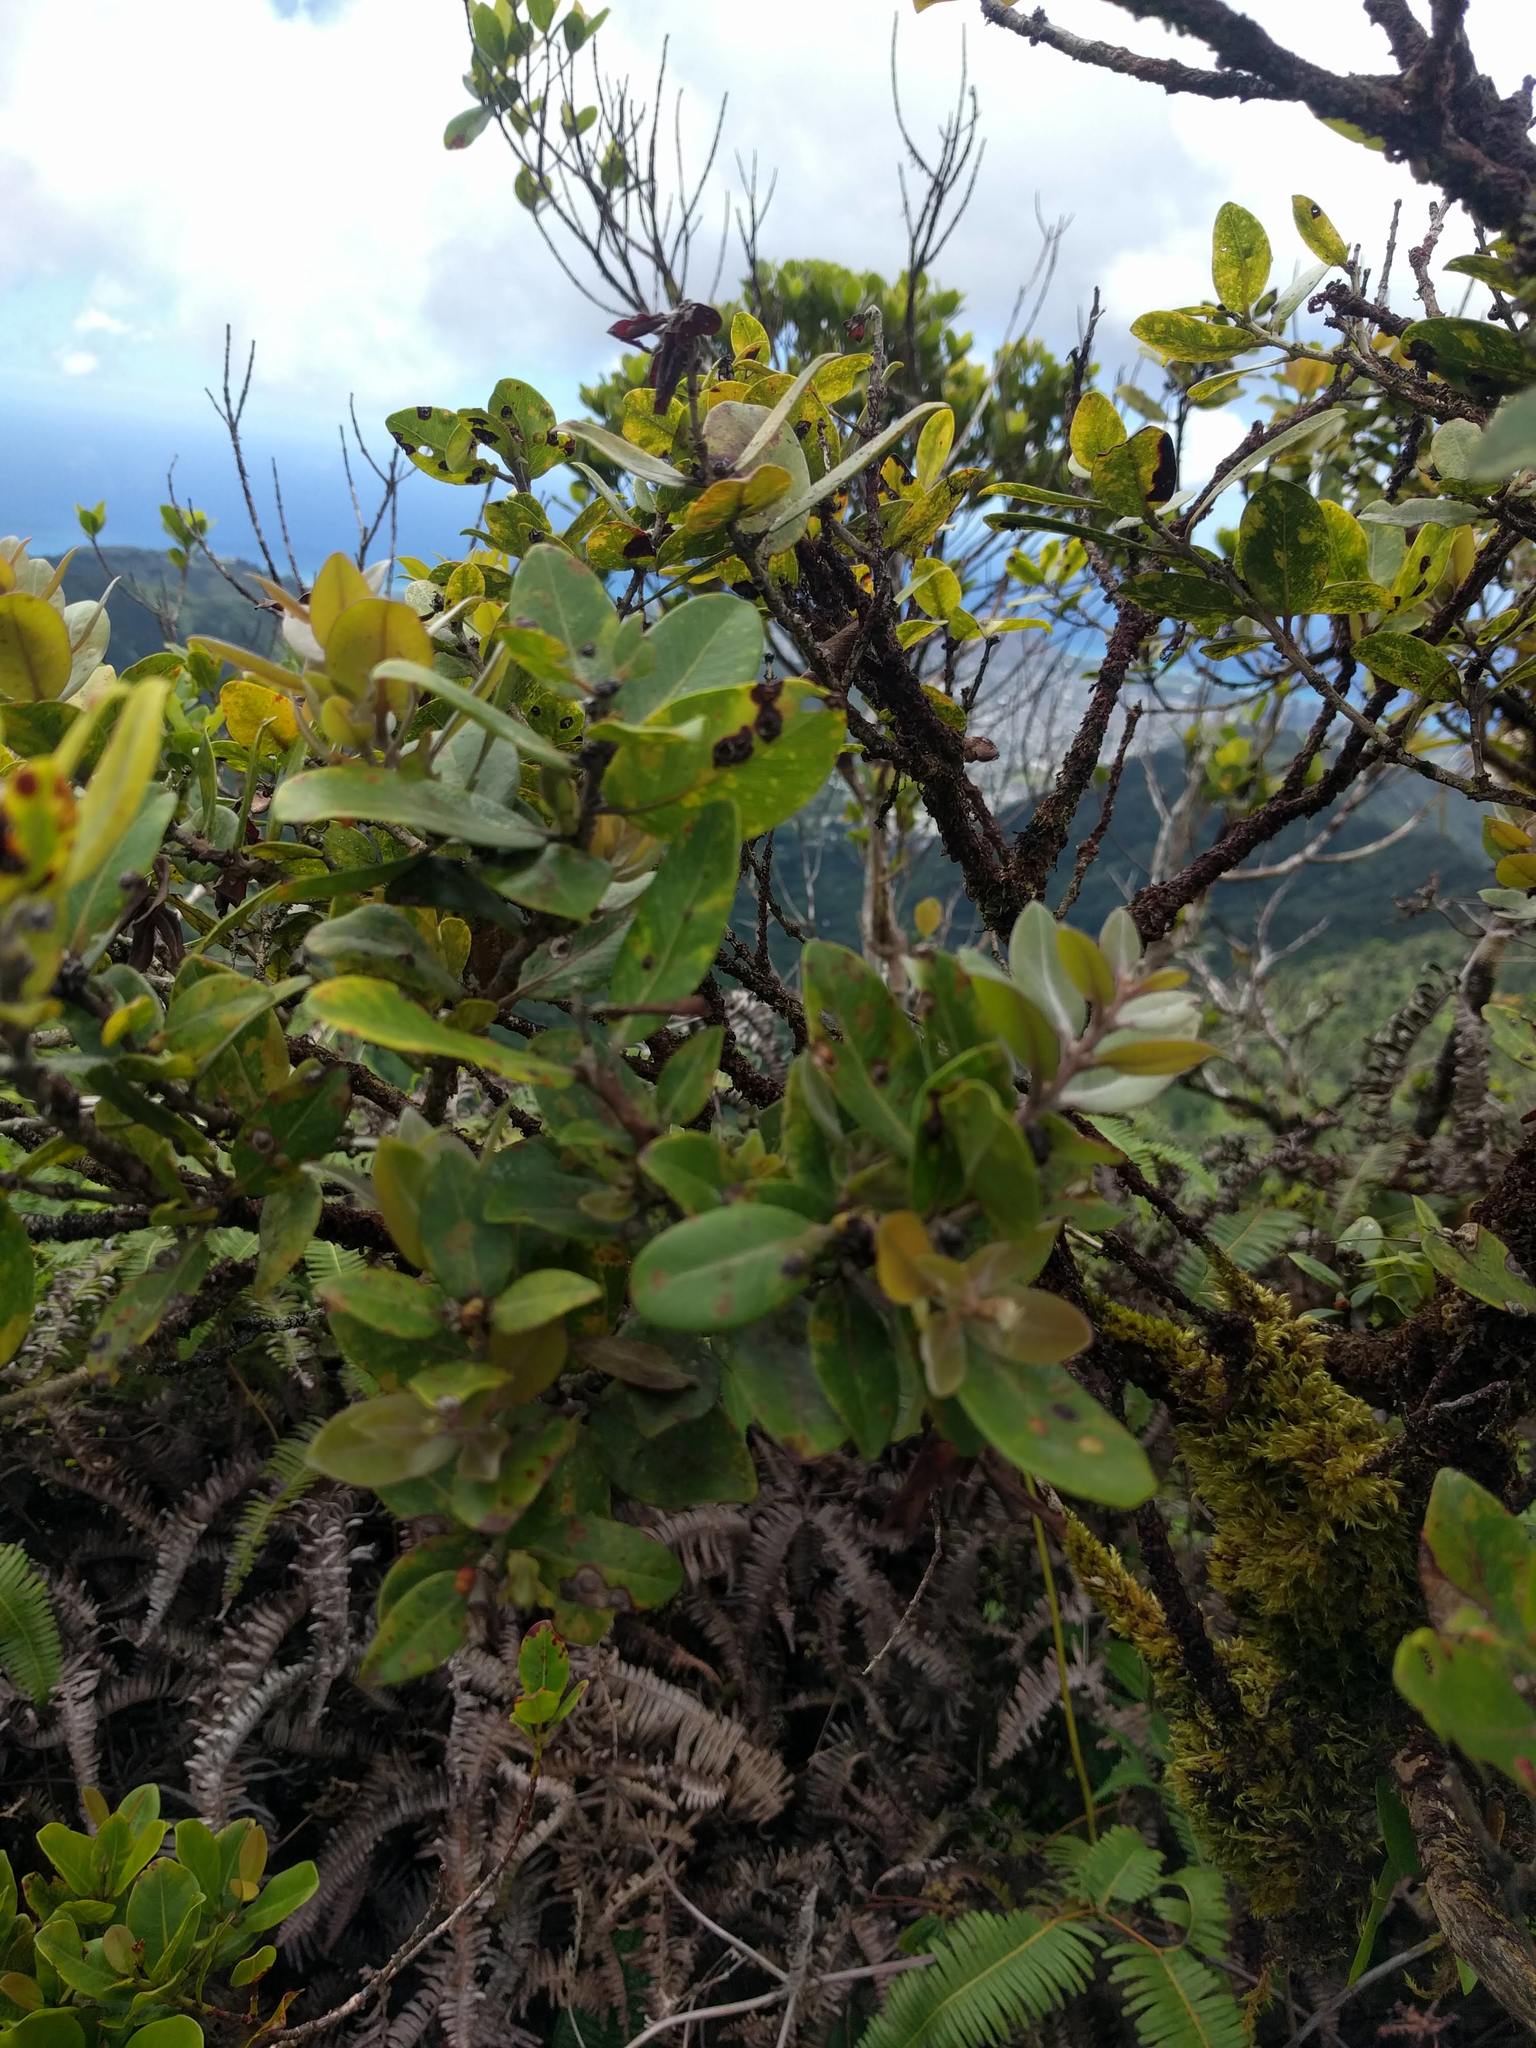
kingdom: Plantae
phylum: Tracheophyta
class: Magnoliopsida
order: Myrtales
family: Myrtaceae
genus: Metrosideros
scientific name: Metrosideros polymorpha
